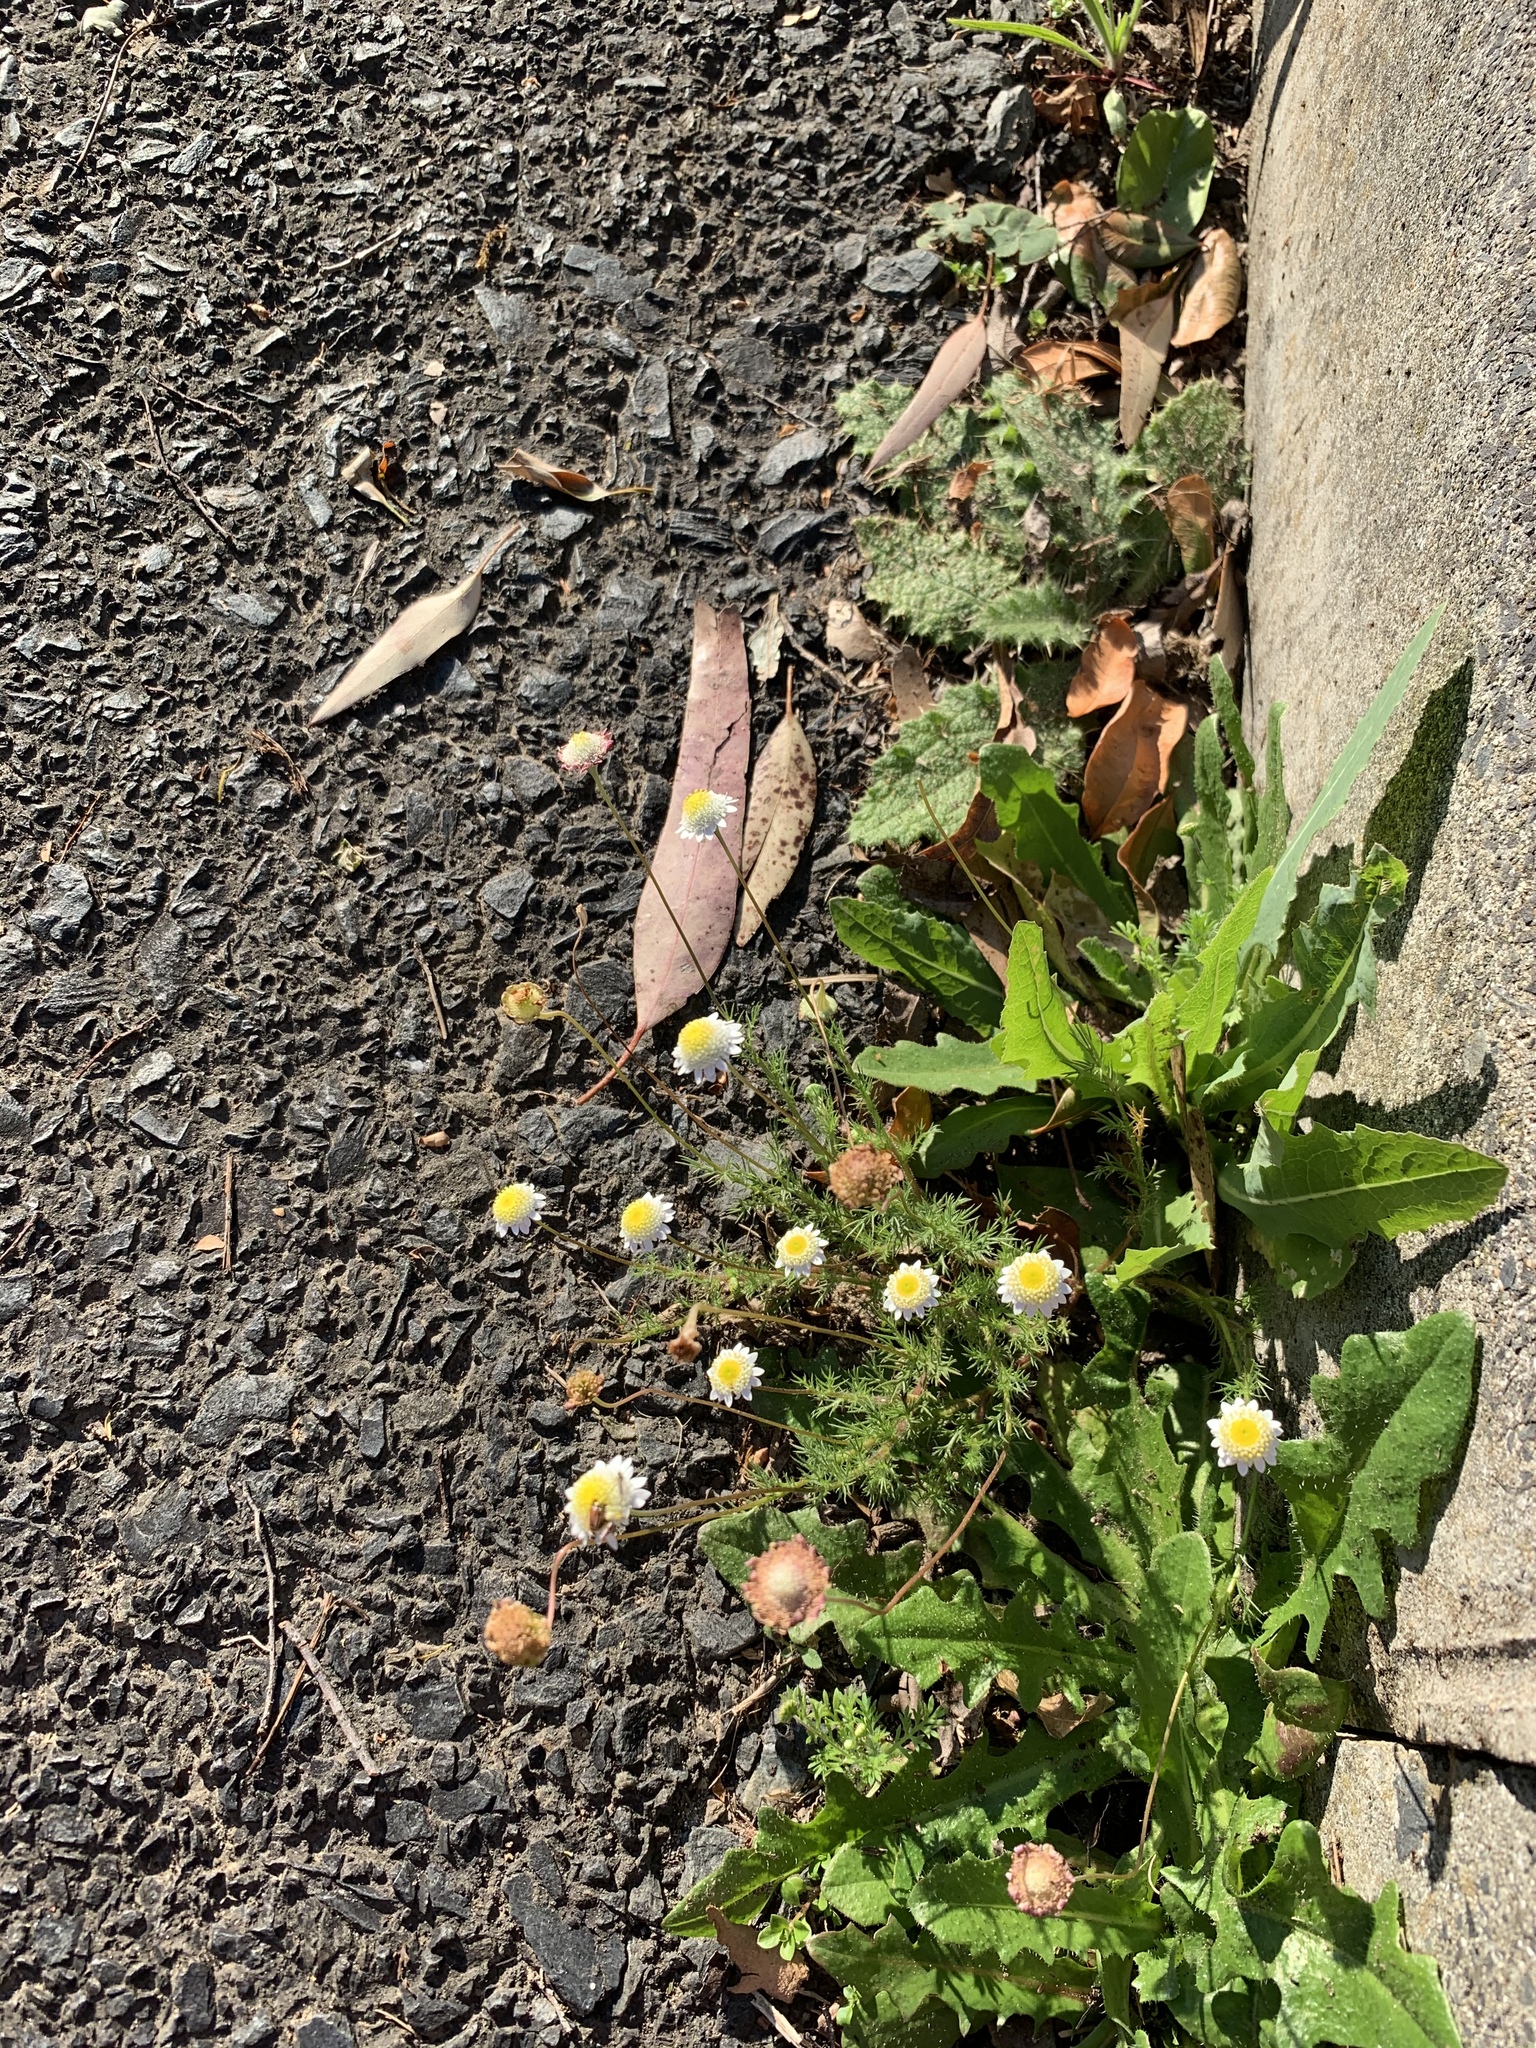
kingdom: Plantae
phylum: Tracheophyta
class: Magnoliopsida
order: Asterales
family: Asteraceae
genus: Cotula
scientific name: Cotula turbinata
